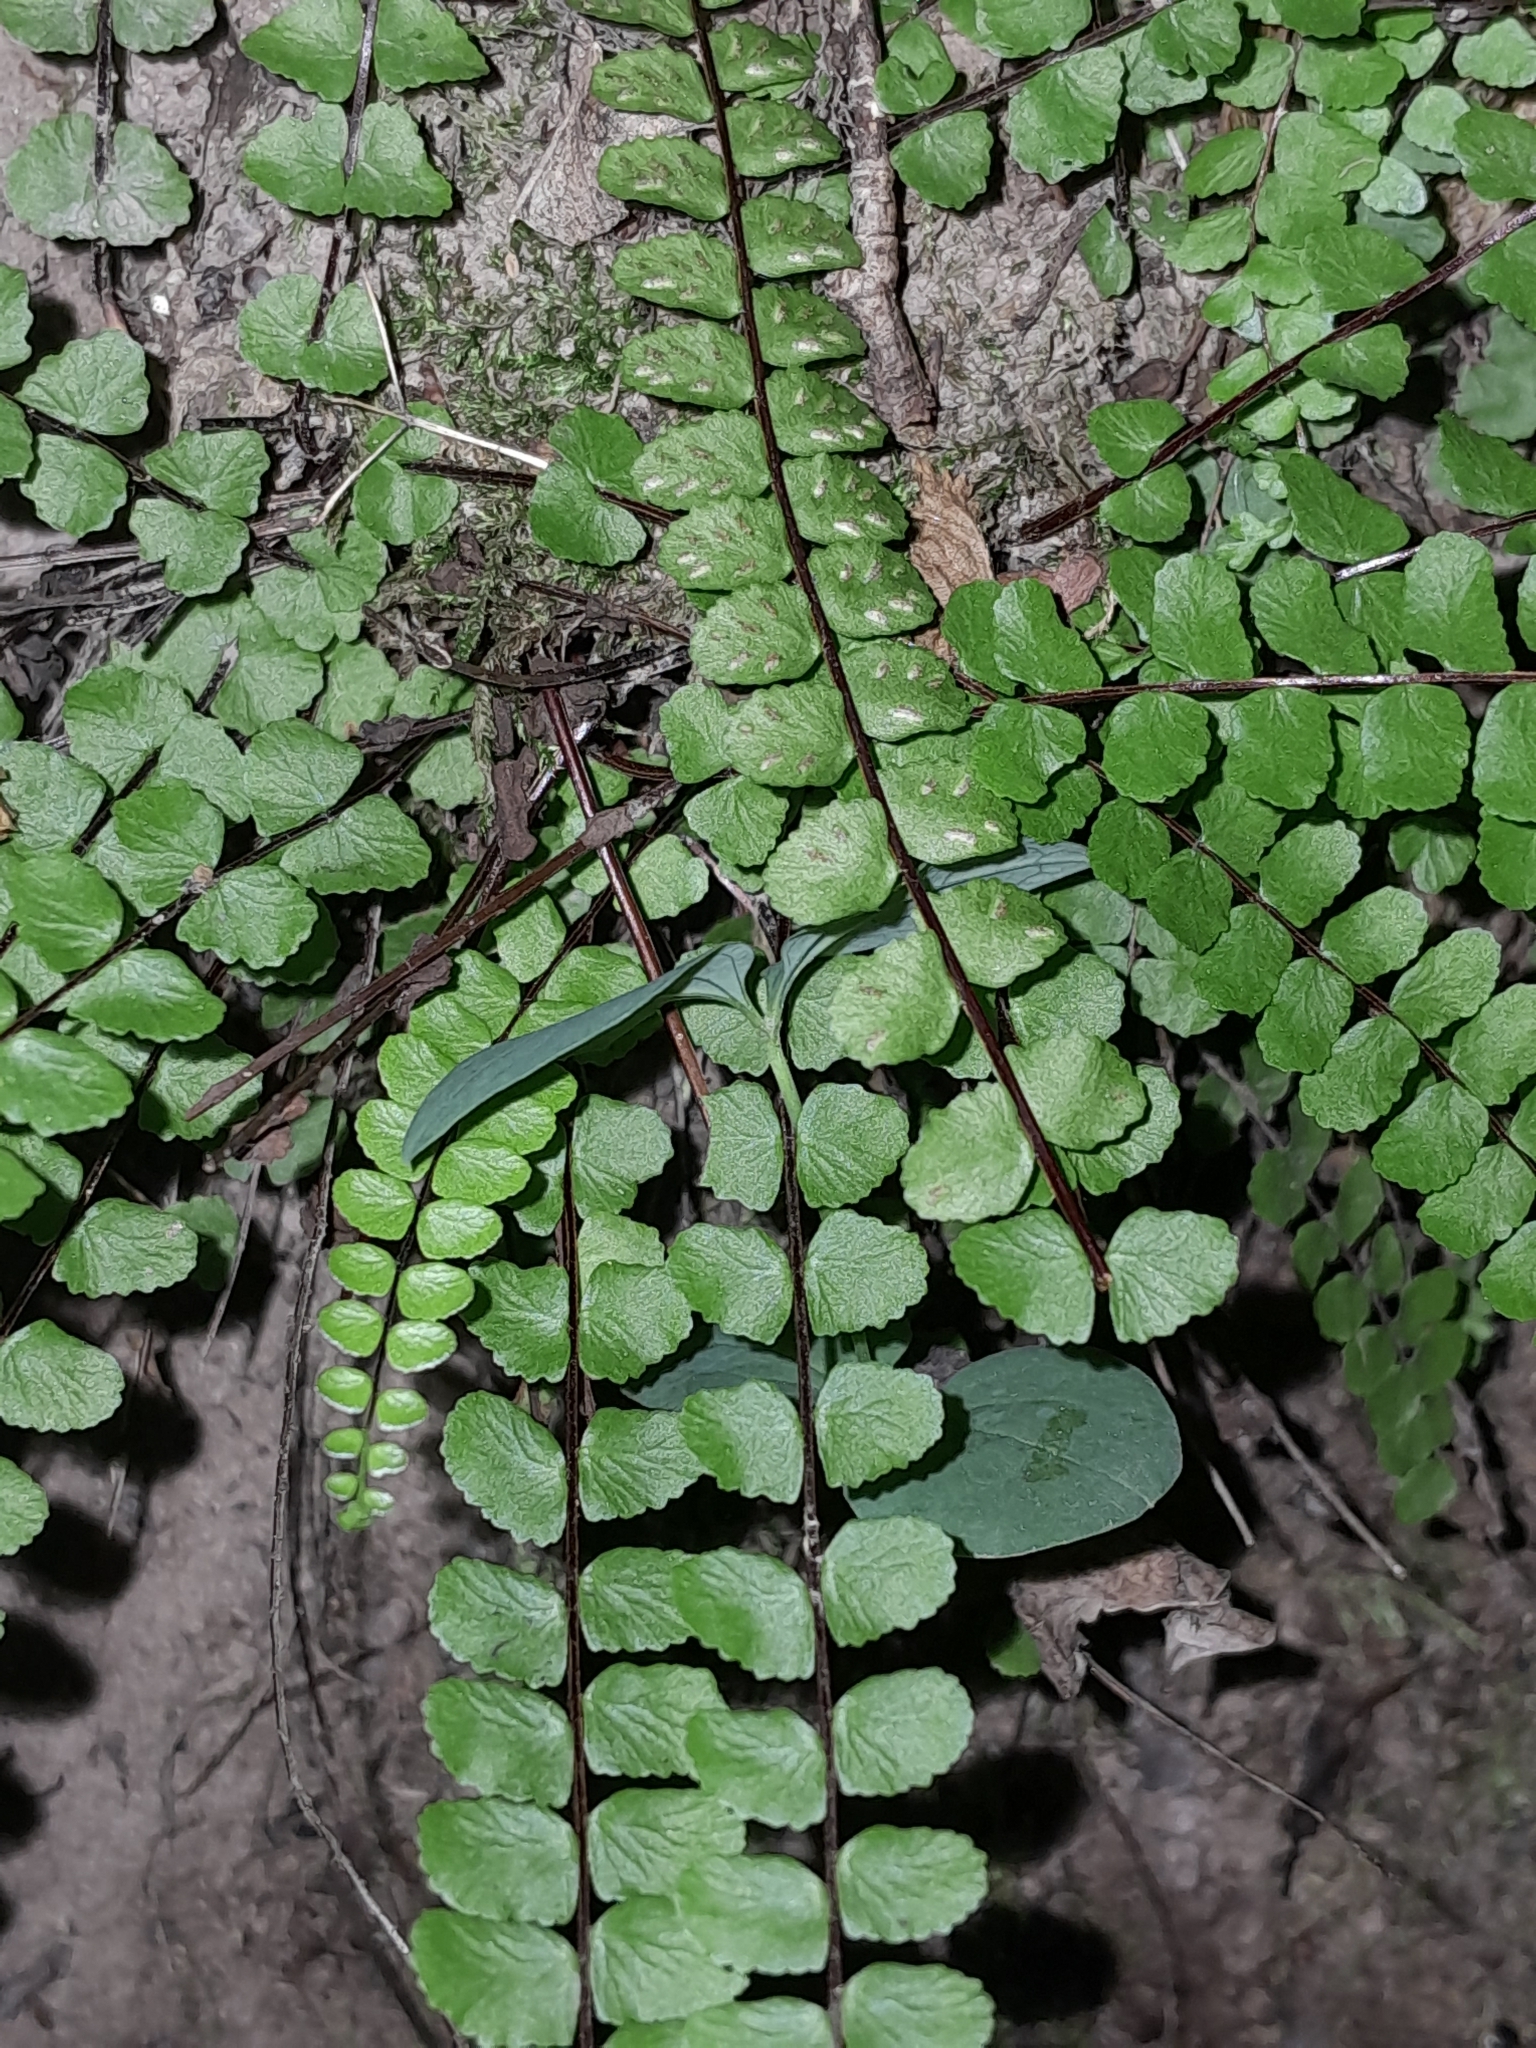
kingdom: Plantae
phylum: Tracheophyta
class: Polypodiopsida
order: Polypodiales
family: Aspleniaceae
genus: Asplenium
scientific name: Asplenium trichomanes
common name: Maidenhair spleenwort
